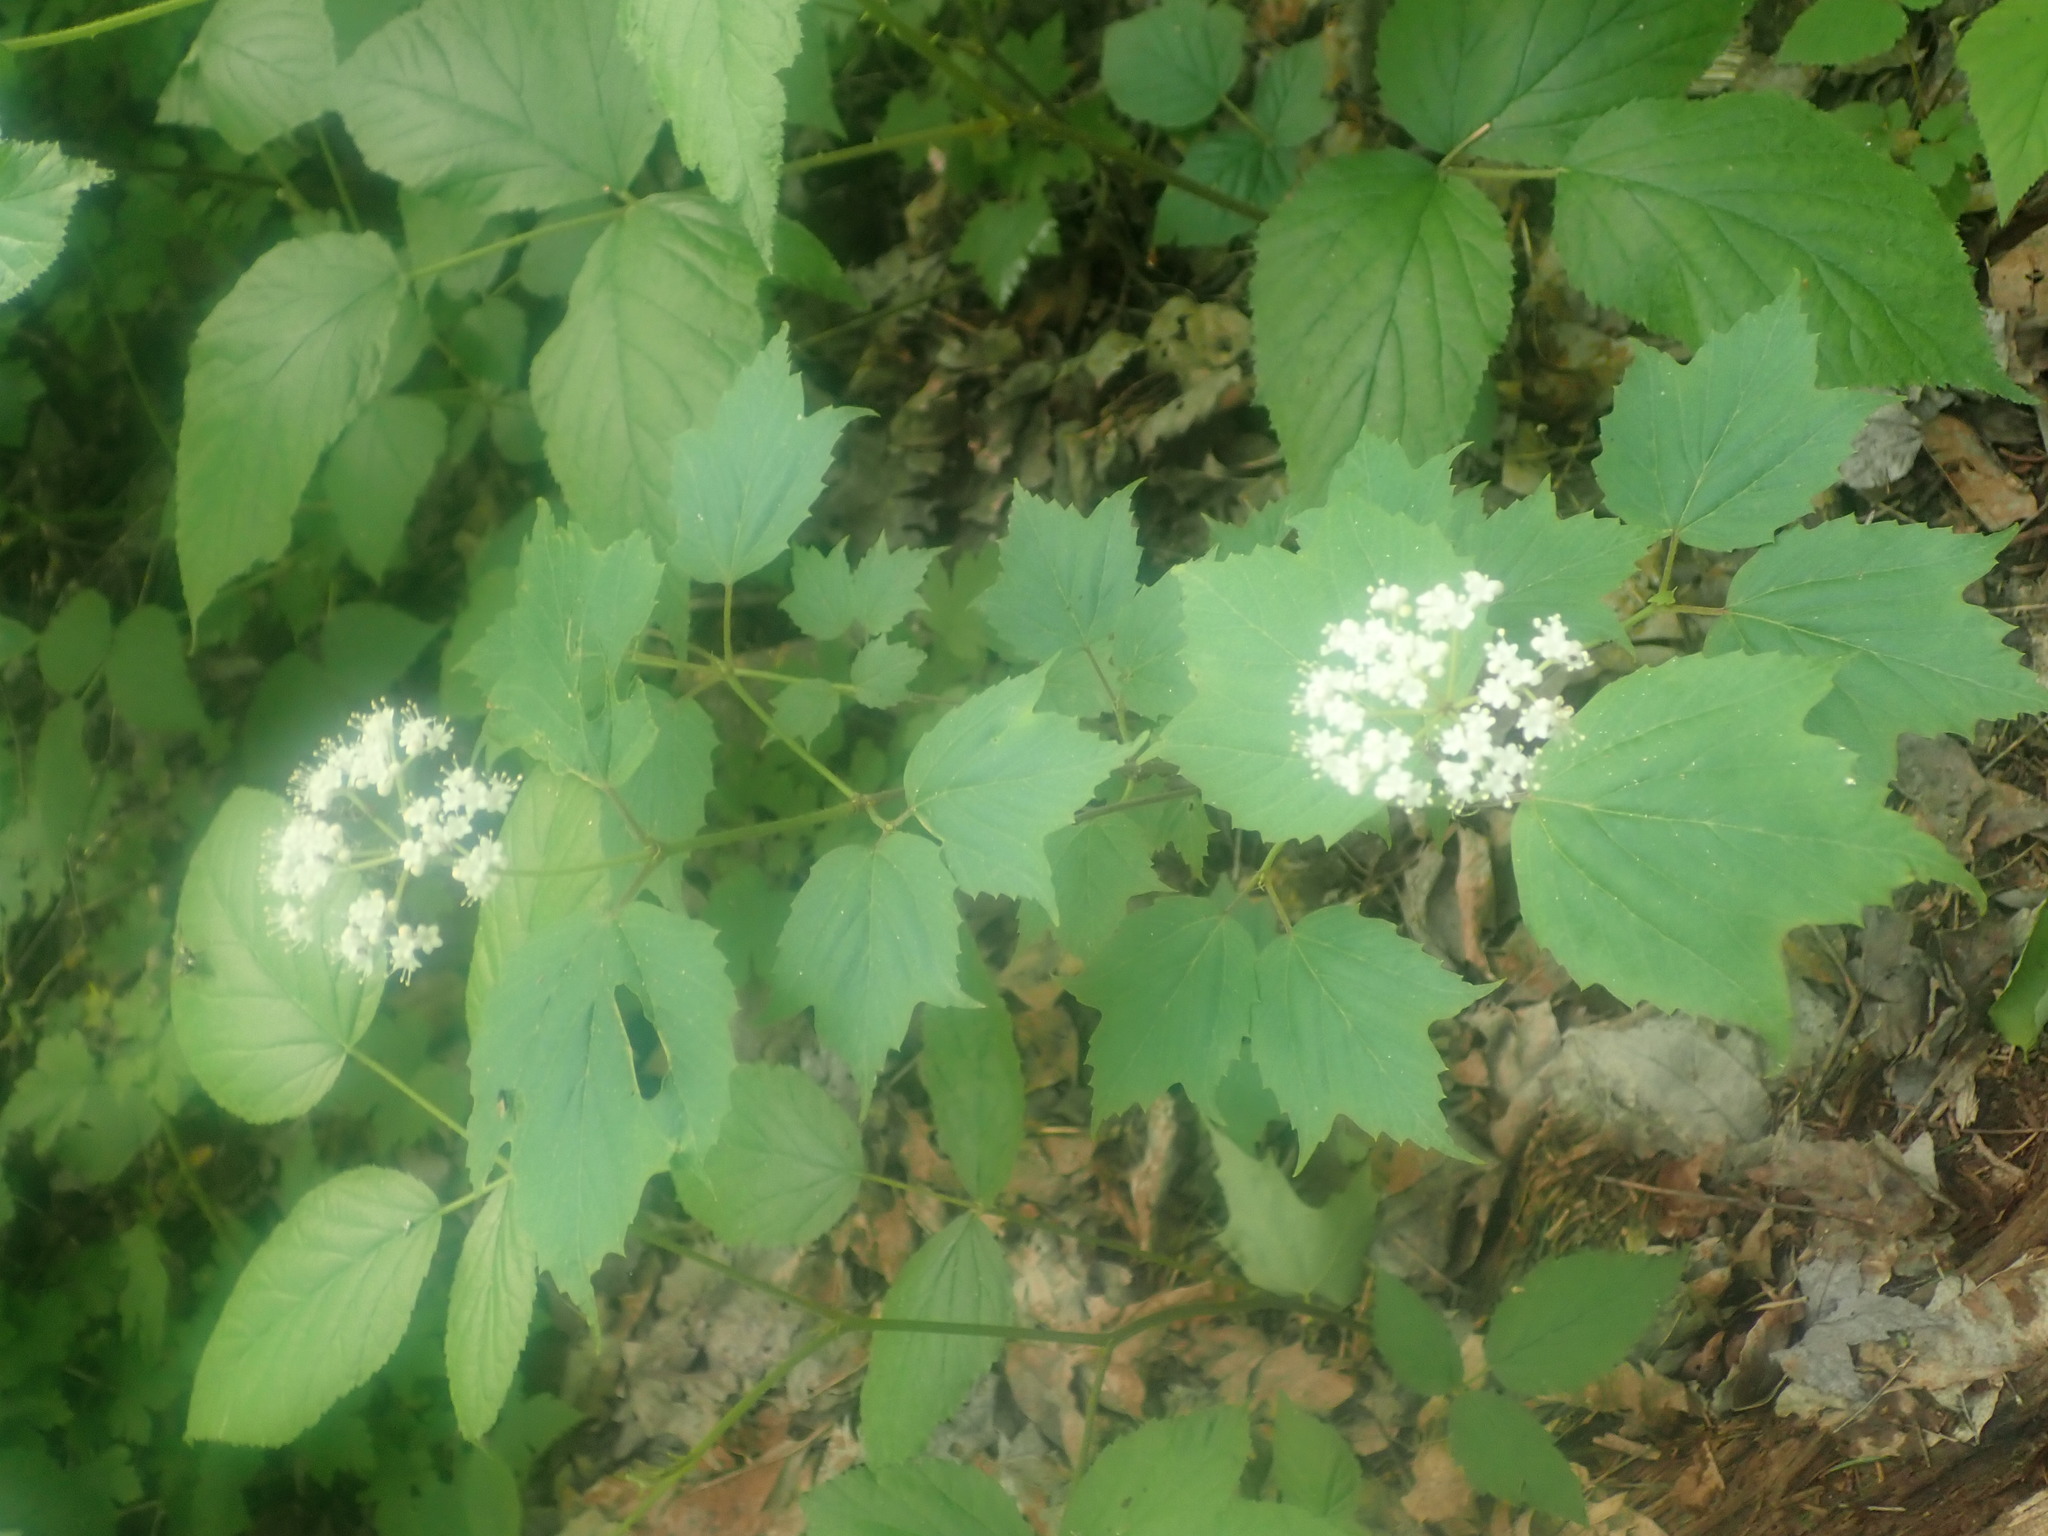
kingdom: Plantae
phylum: Tracheophyta
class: Magnoliopsida
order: Dipsacales
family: Viburnaceae
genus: Viburnum
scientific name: Viburnum acerifolium
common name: Dockmackie
